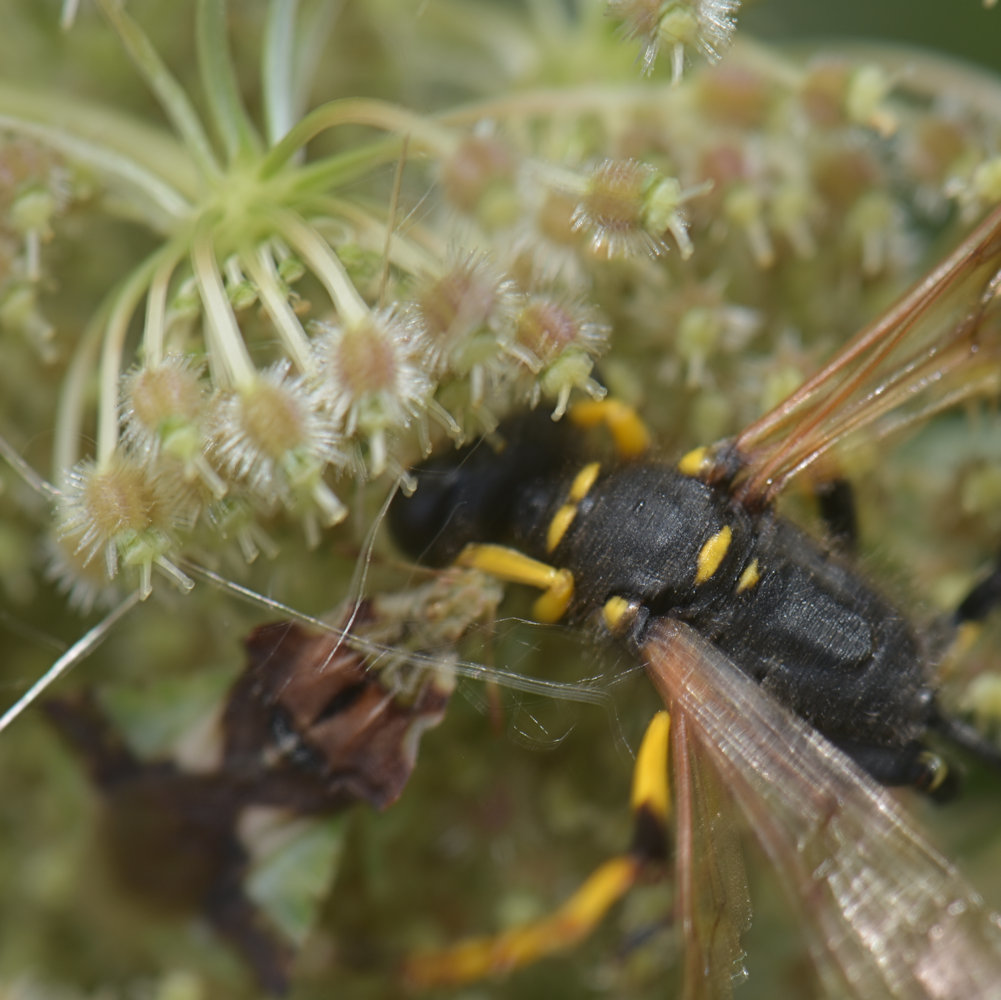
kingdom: Animalia
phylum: Arthropoda
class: Insecta
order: Hymenoptera
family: Sphecidae
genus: Sceliphron
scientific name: Sceliphron caementarium
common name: Mud dauber
